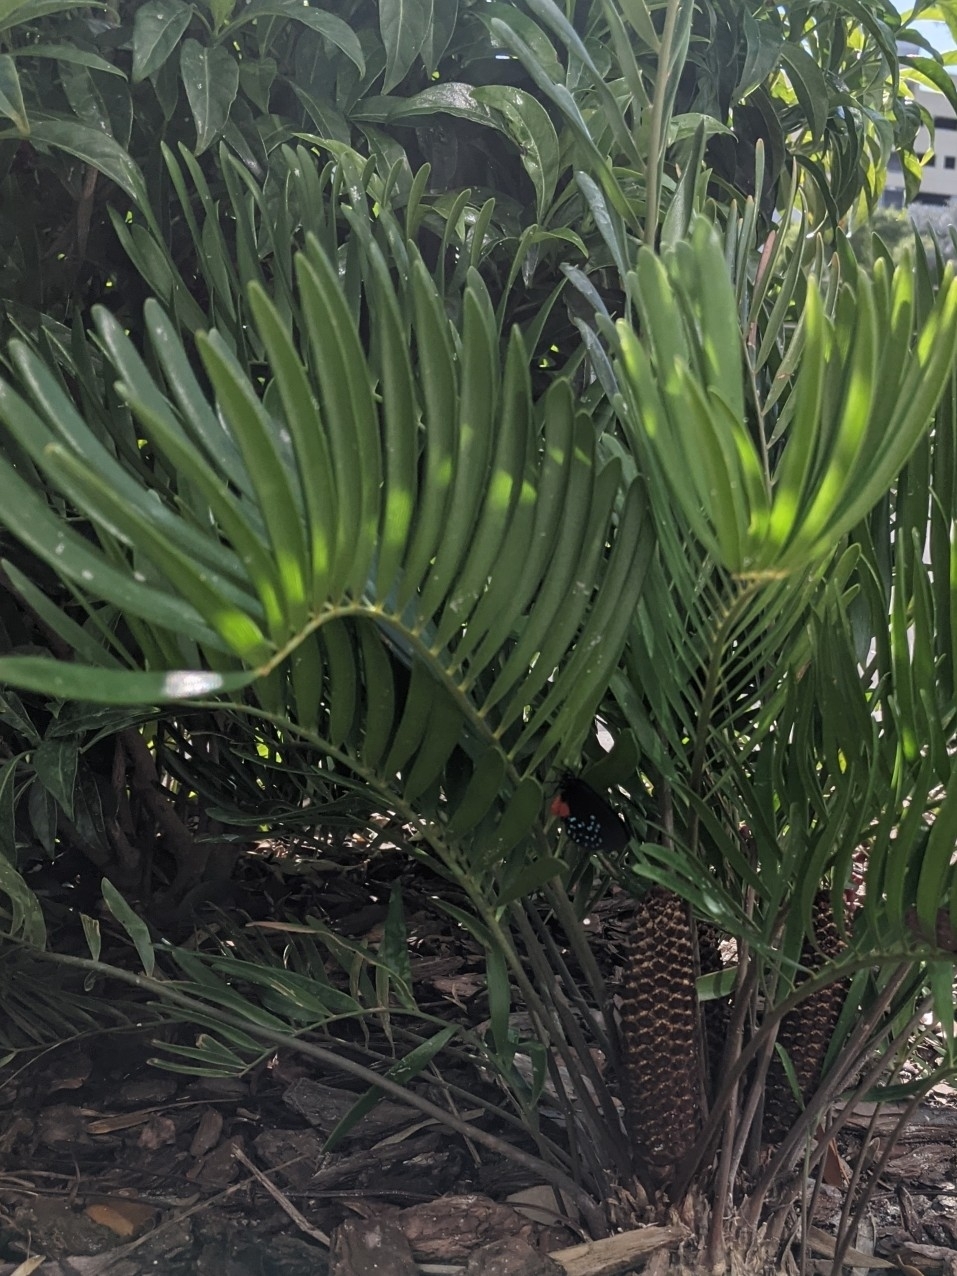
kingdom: Animalia
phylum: Arthropoda
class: Insecta
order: Lepidoptera
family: Lycaenidae
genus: Eumaeus
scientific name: Eumaeus atala
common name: Atala
